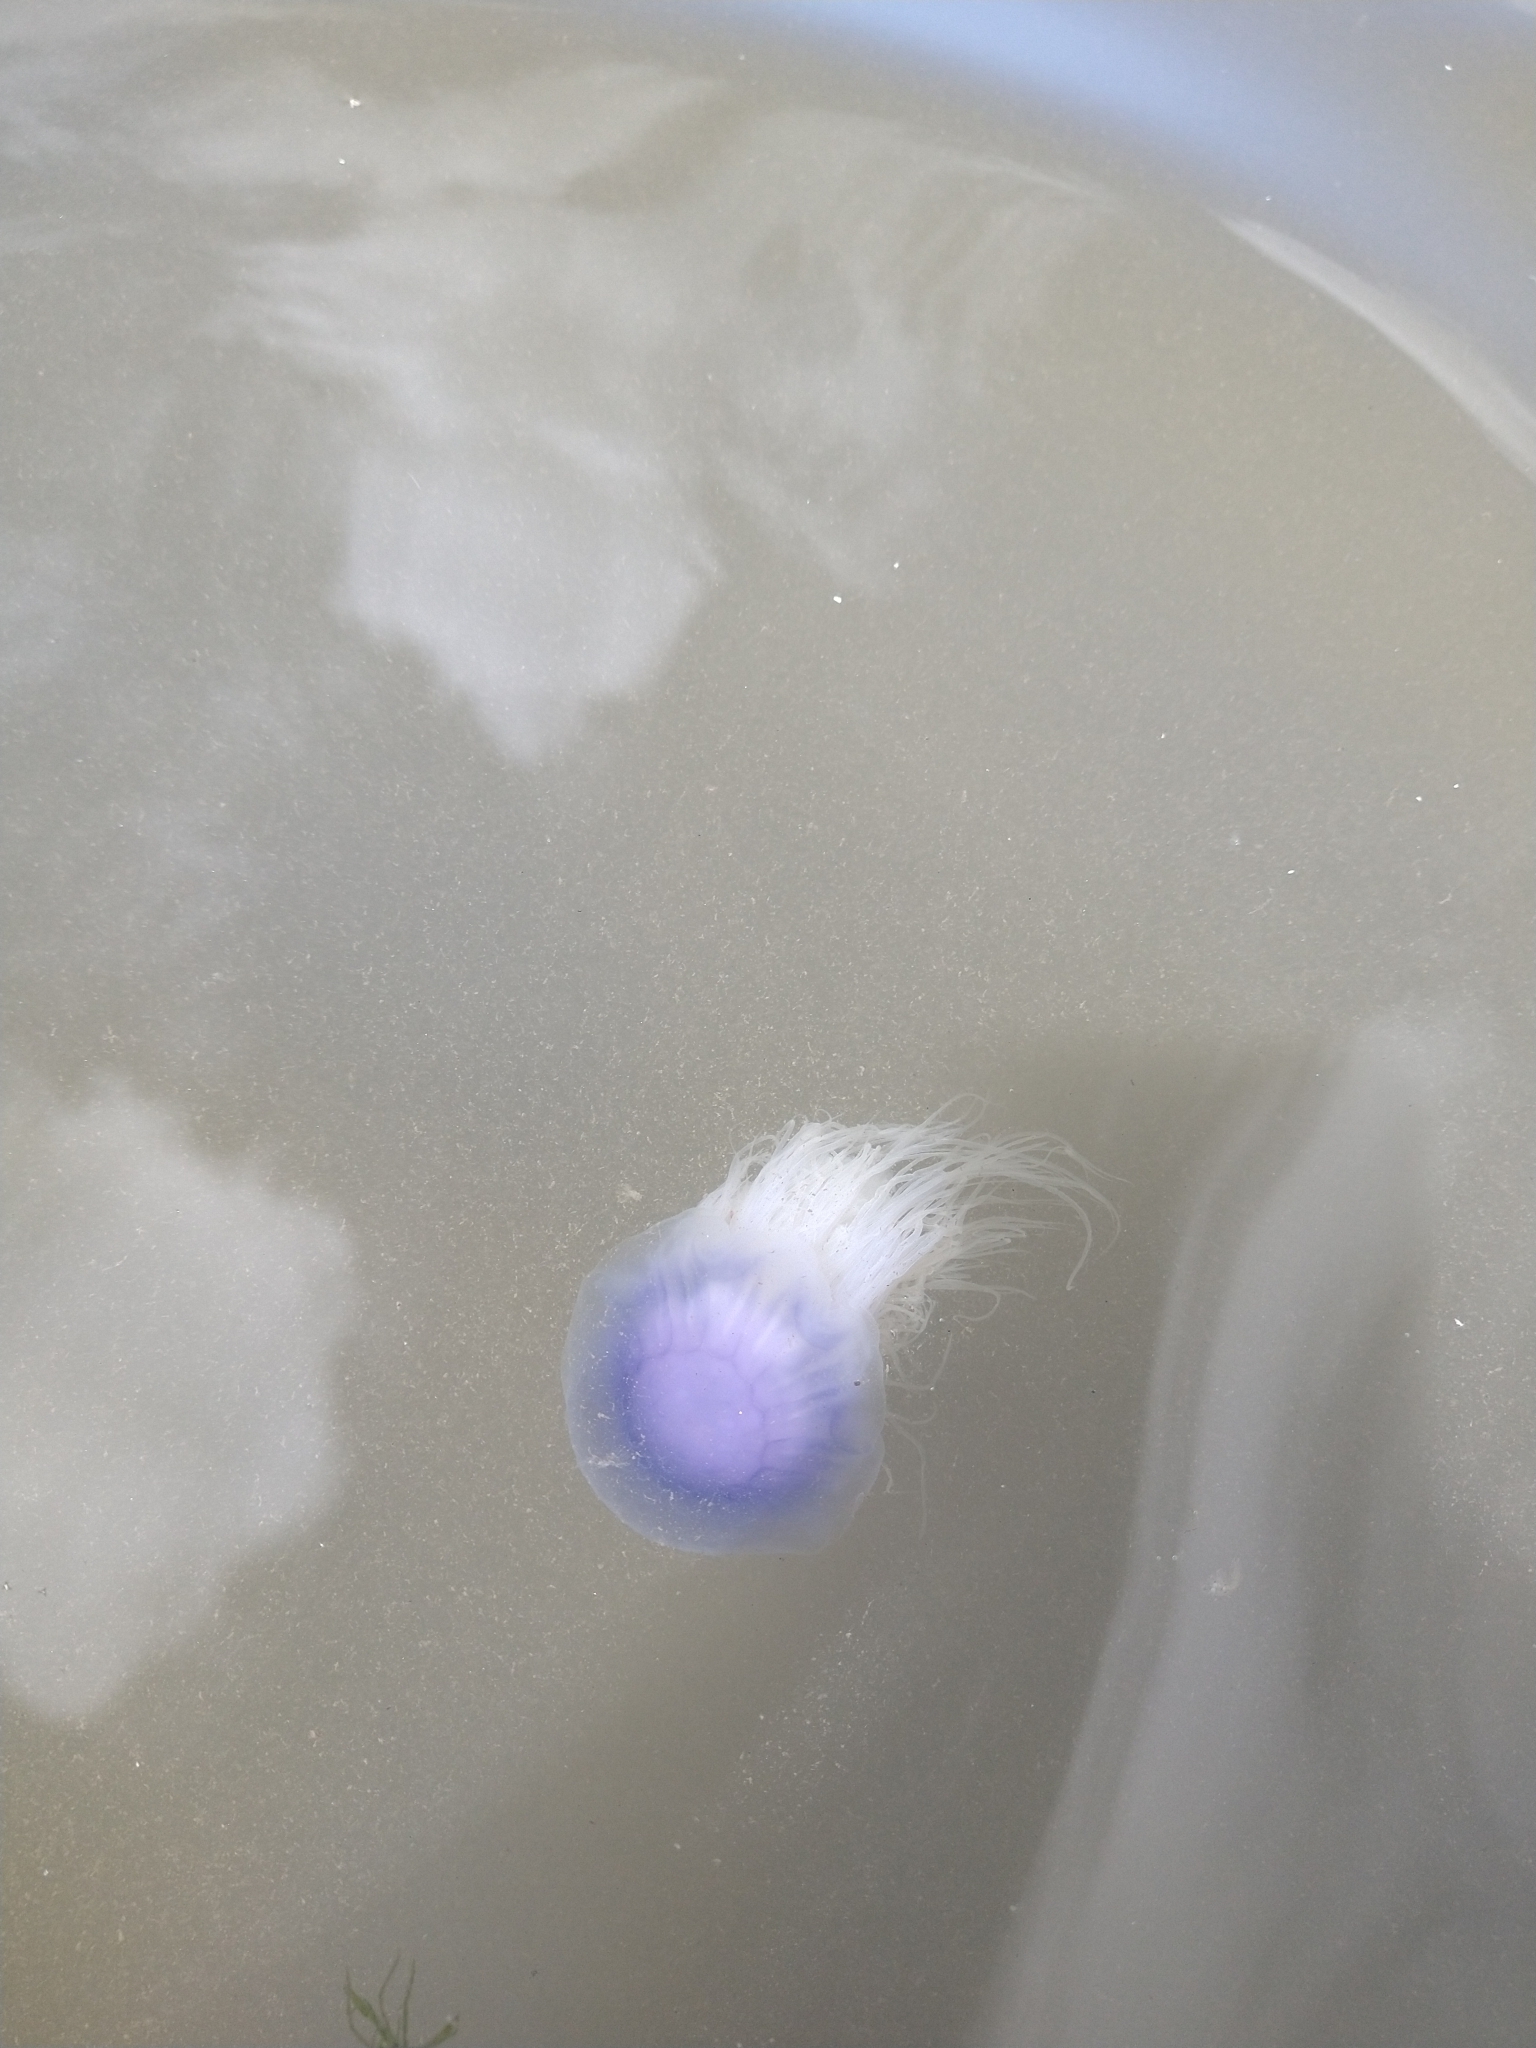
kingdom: Animalia
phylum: Cnidaria
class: Scyphozoa
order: Semaeostomeae
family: Cyaneidae
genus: Cyanea
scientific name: Cyanea lamarckii
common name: Blue jellyfish
